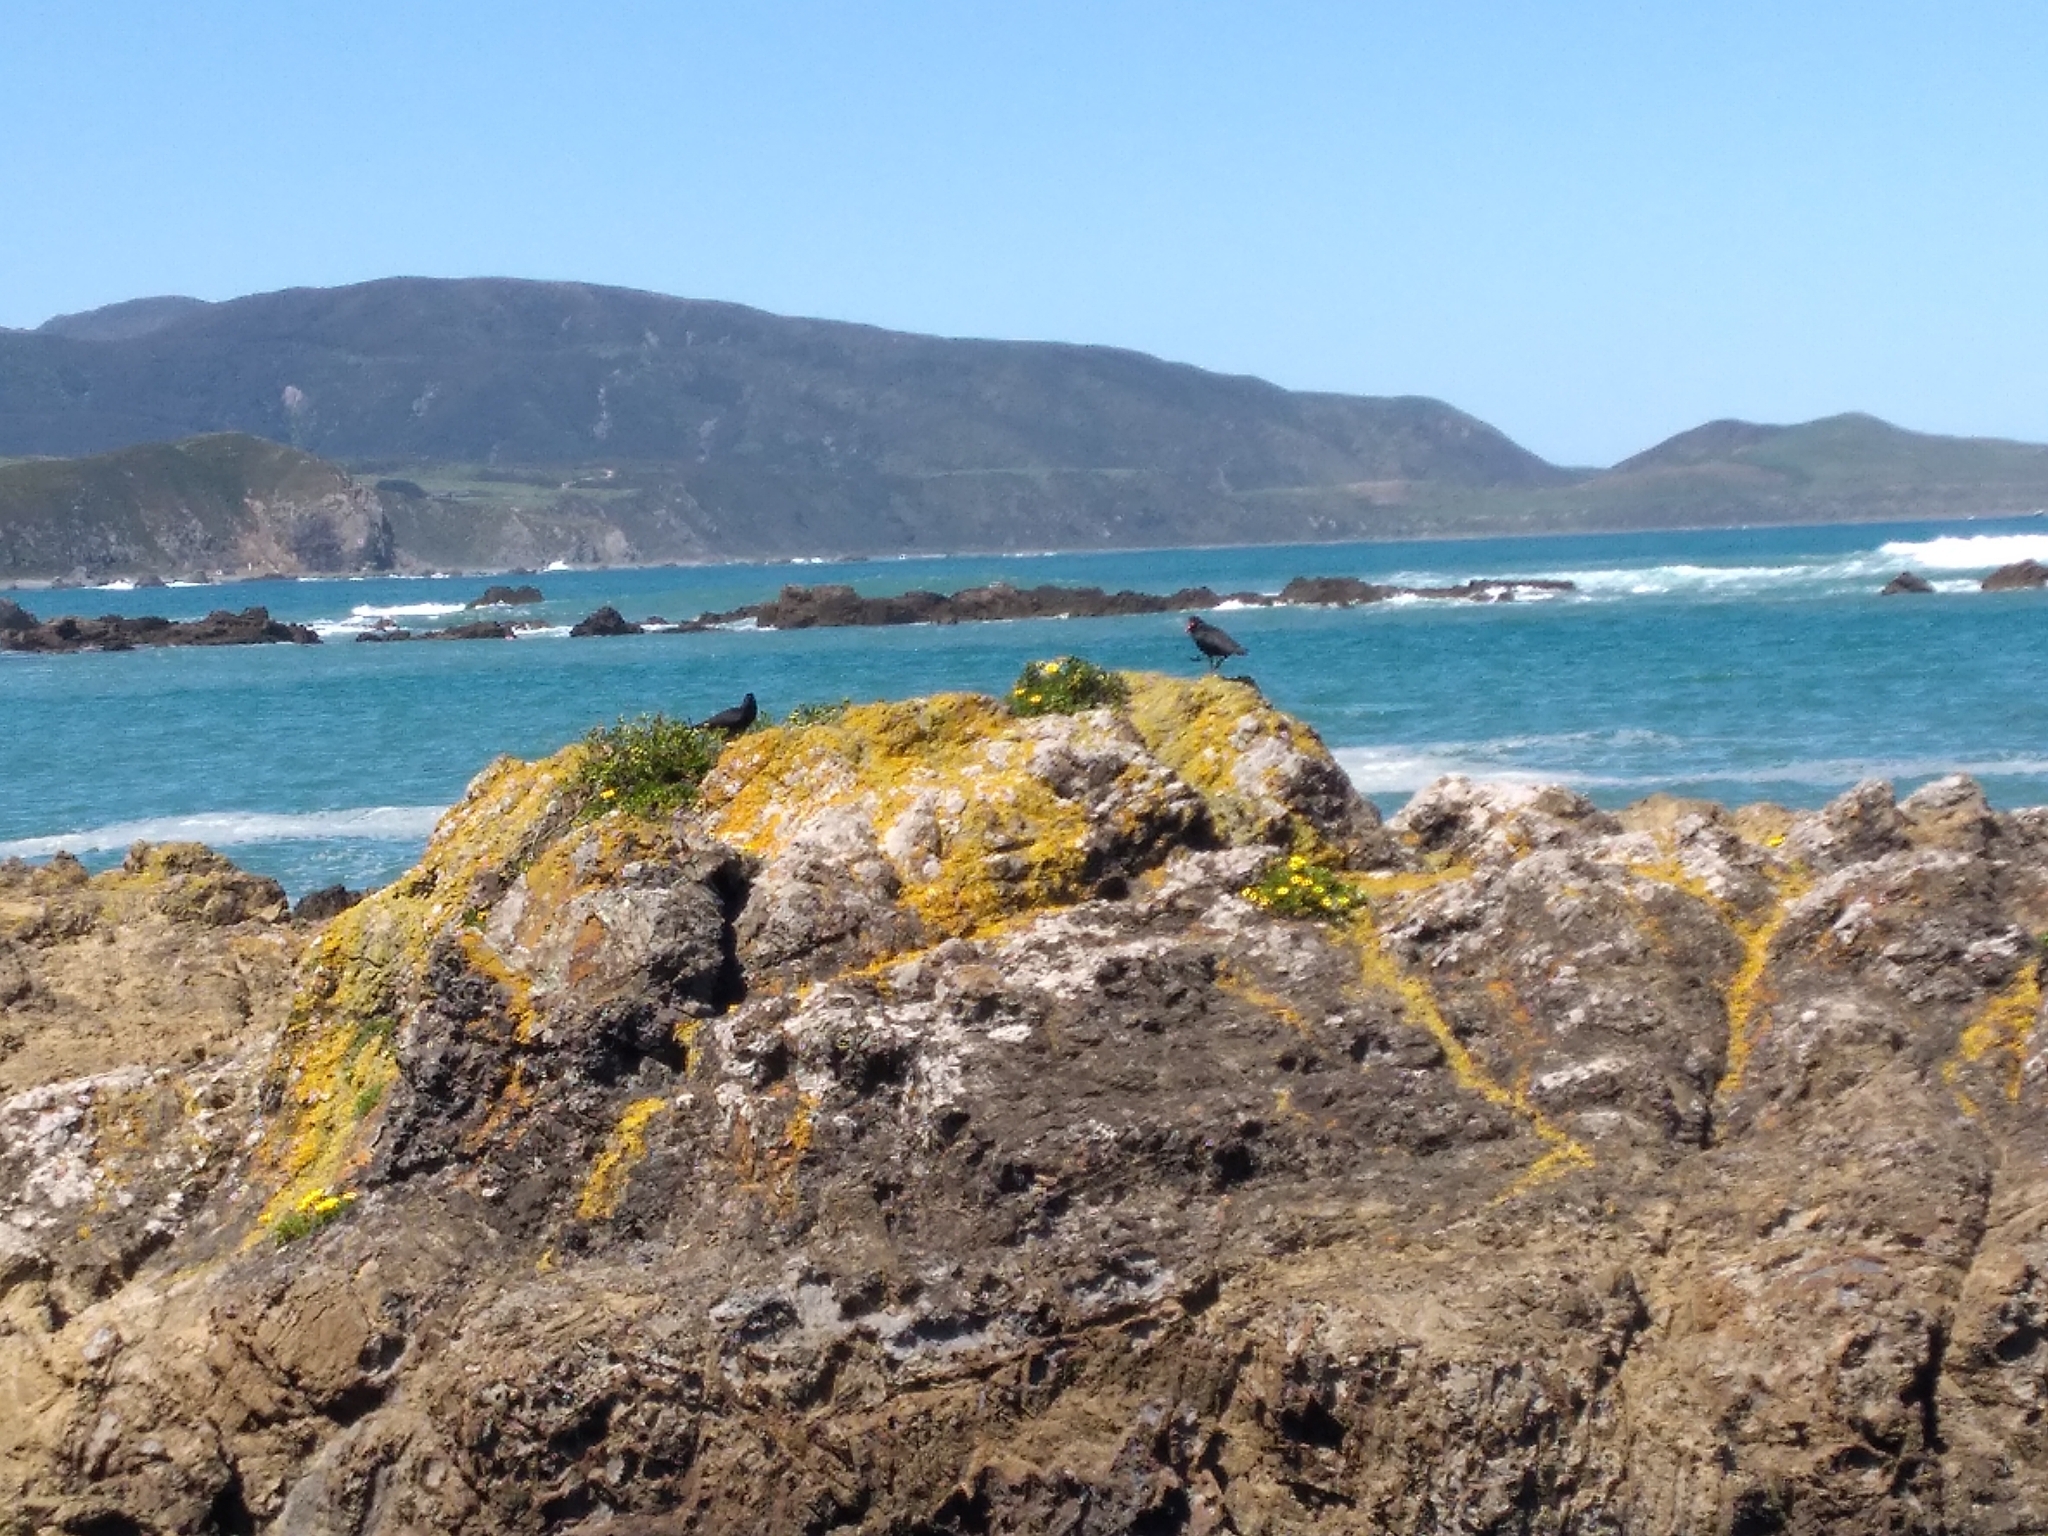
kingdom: Animalia
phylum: Chordata
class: Aves
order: Charadriiformes
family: Haematopodidae
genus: Haematopus
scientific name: Haematopus unicolor
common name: Variable oystercatcher
